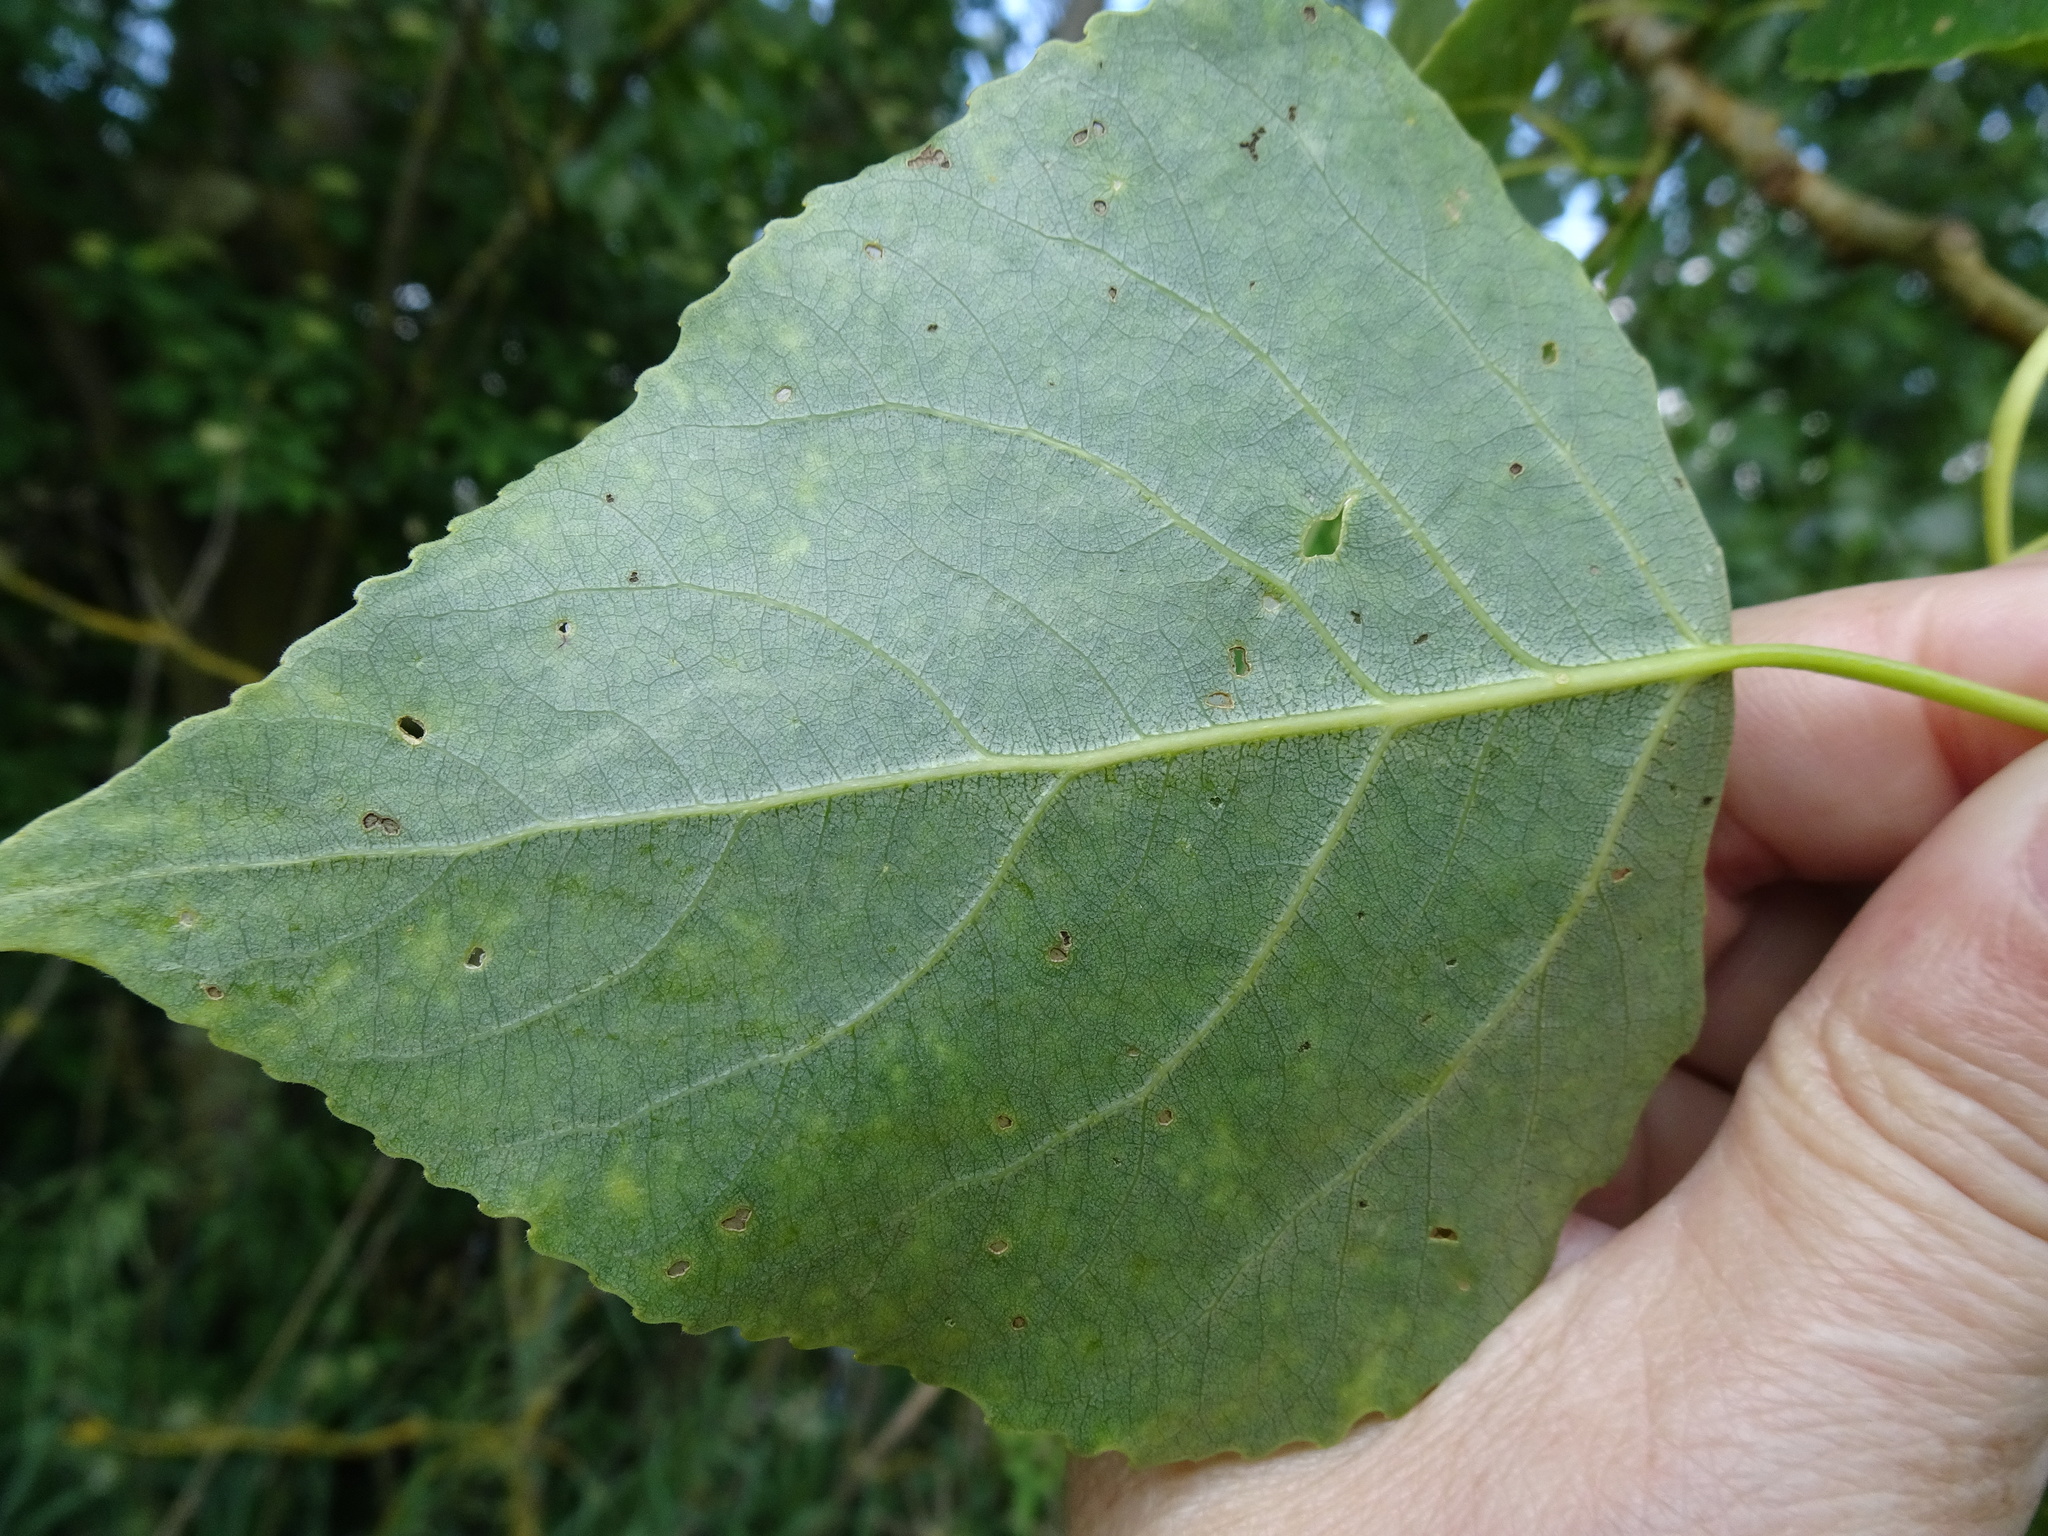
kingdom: Plantae
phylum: Tracheophyta
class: Magnoliopsida
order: Malpighiales
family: Salicaceae
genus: Populus
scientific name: Populus canadensis
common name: Carolina poplar
